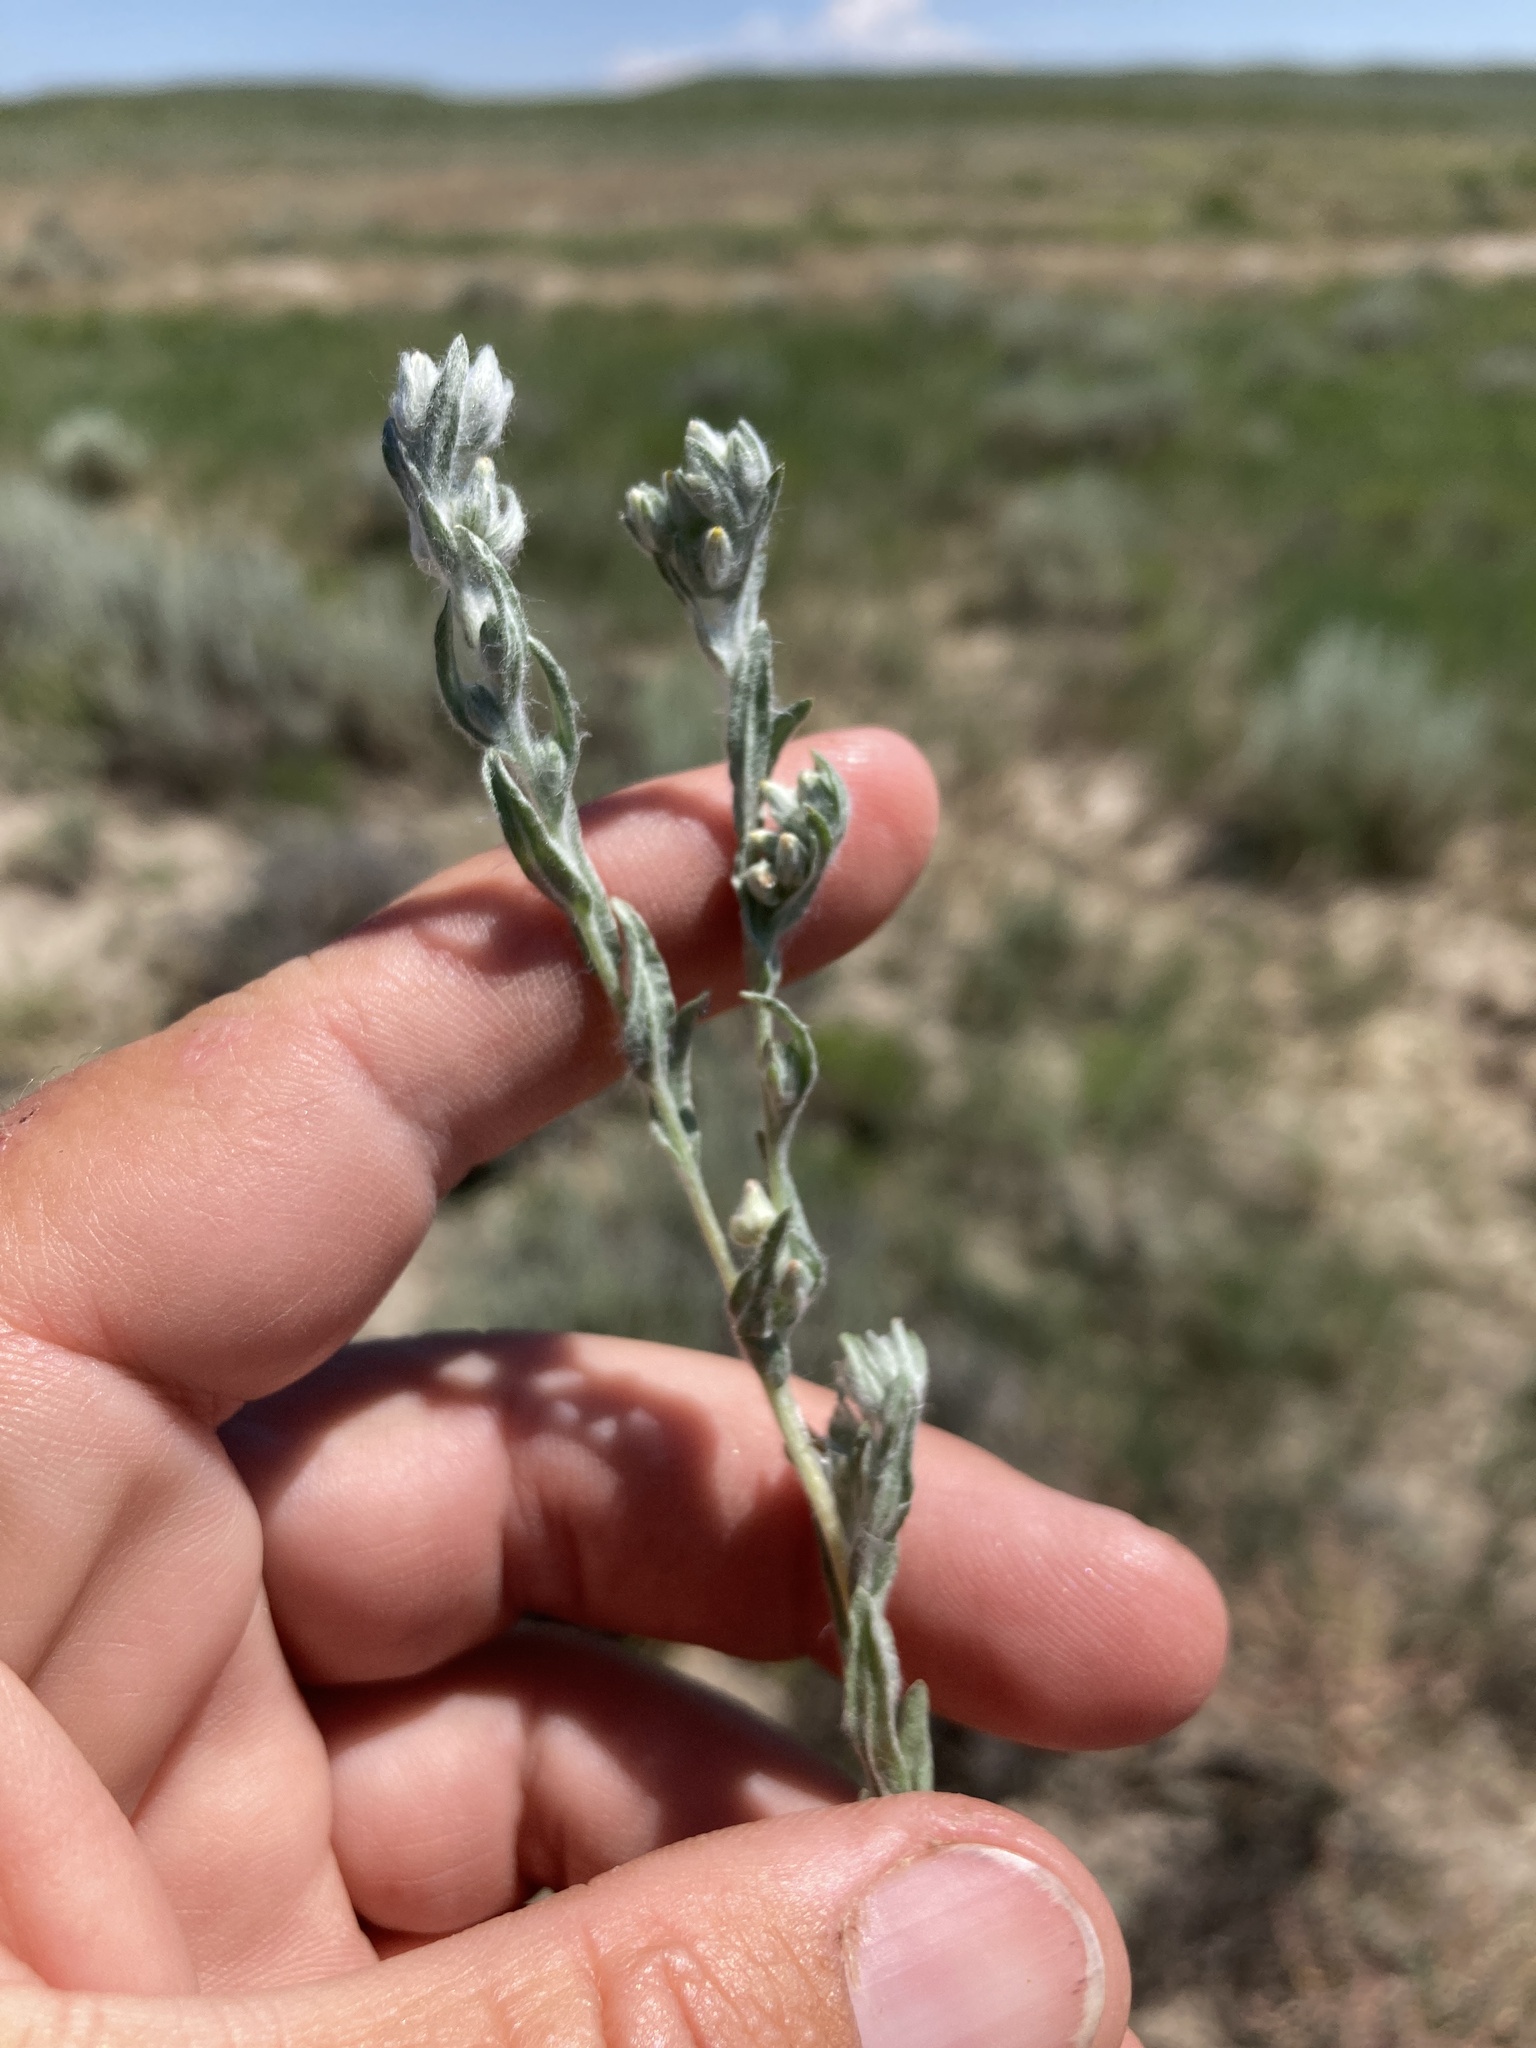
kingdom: Plantae
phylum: Tracheophyta
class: Magnoliopsida
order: Asterales
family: Asteraceae
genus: Filago
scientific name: Filago arvensis
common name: Field cudweed
